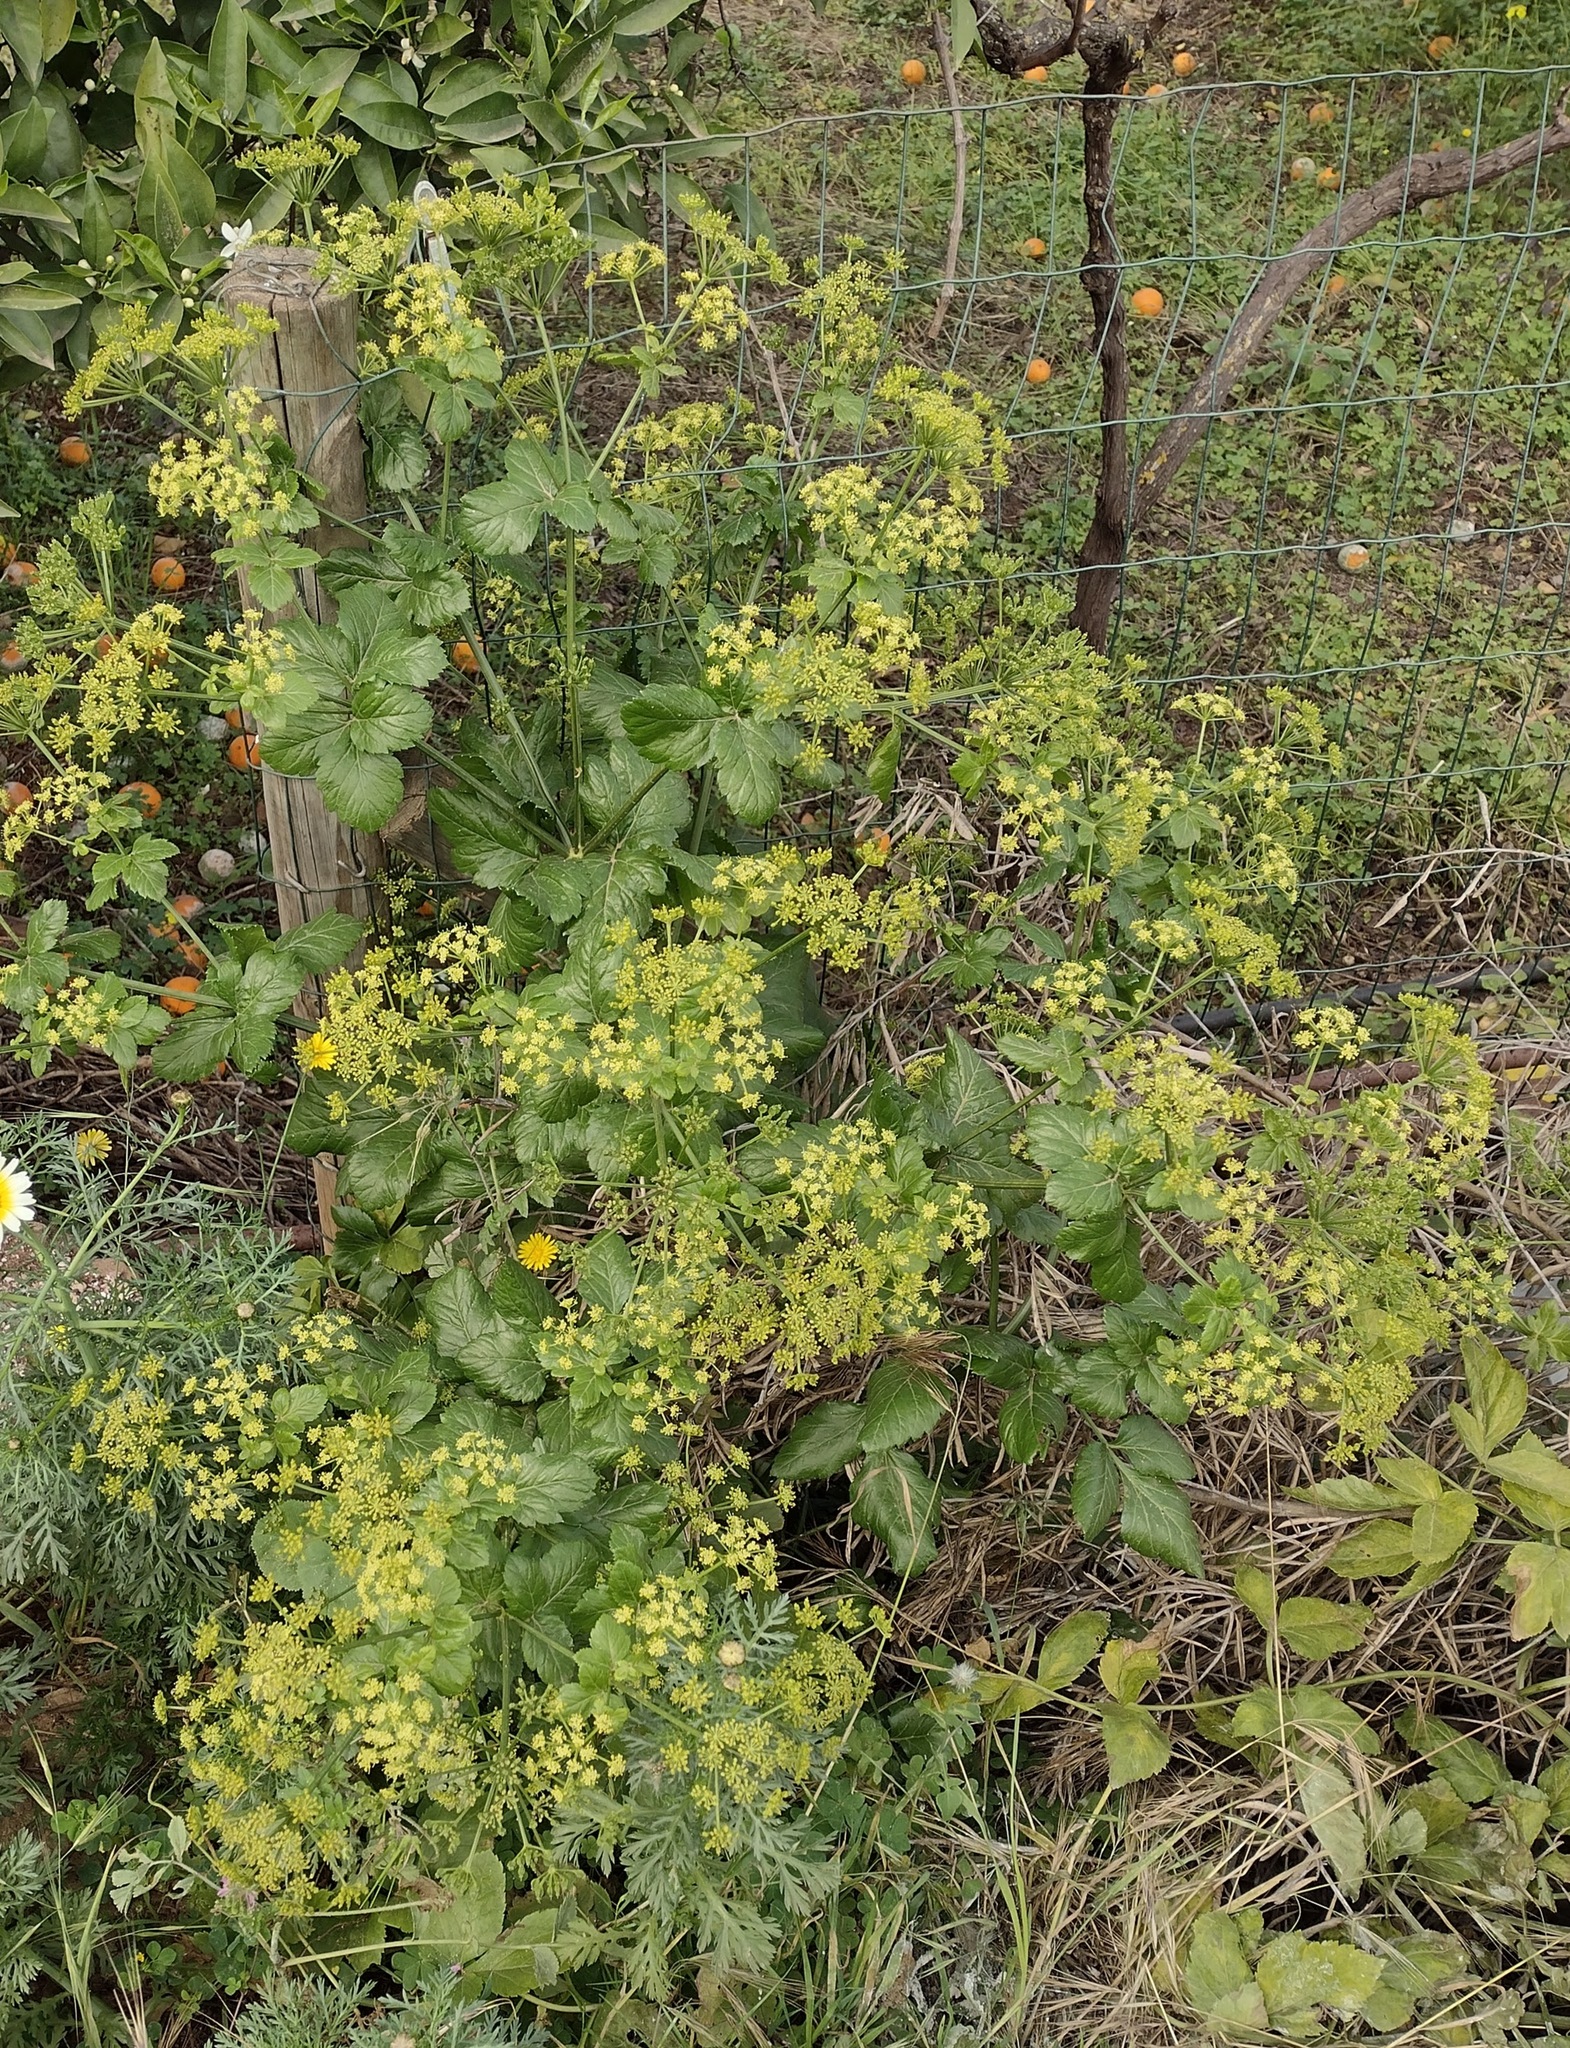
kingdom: Plantae
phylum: Tracheophyta
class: Magnoliopsida
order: Apiales
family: Apiaceae
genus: Smyrnium
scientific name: Smyrnium olusatrum
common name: Alexanders
